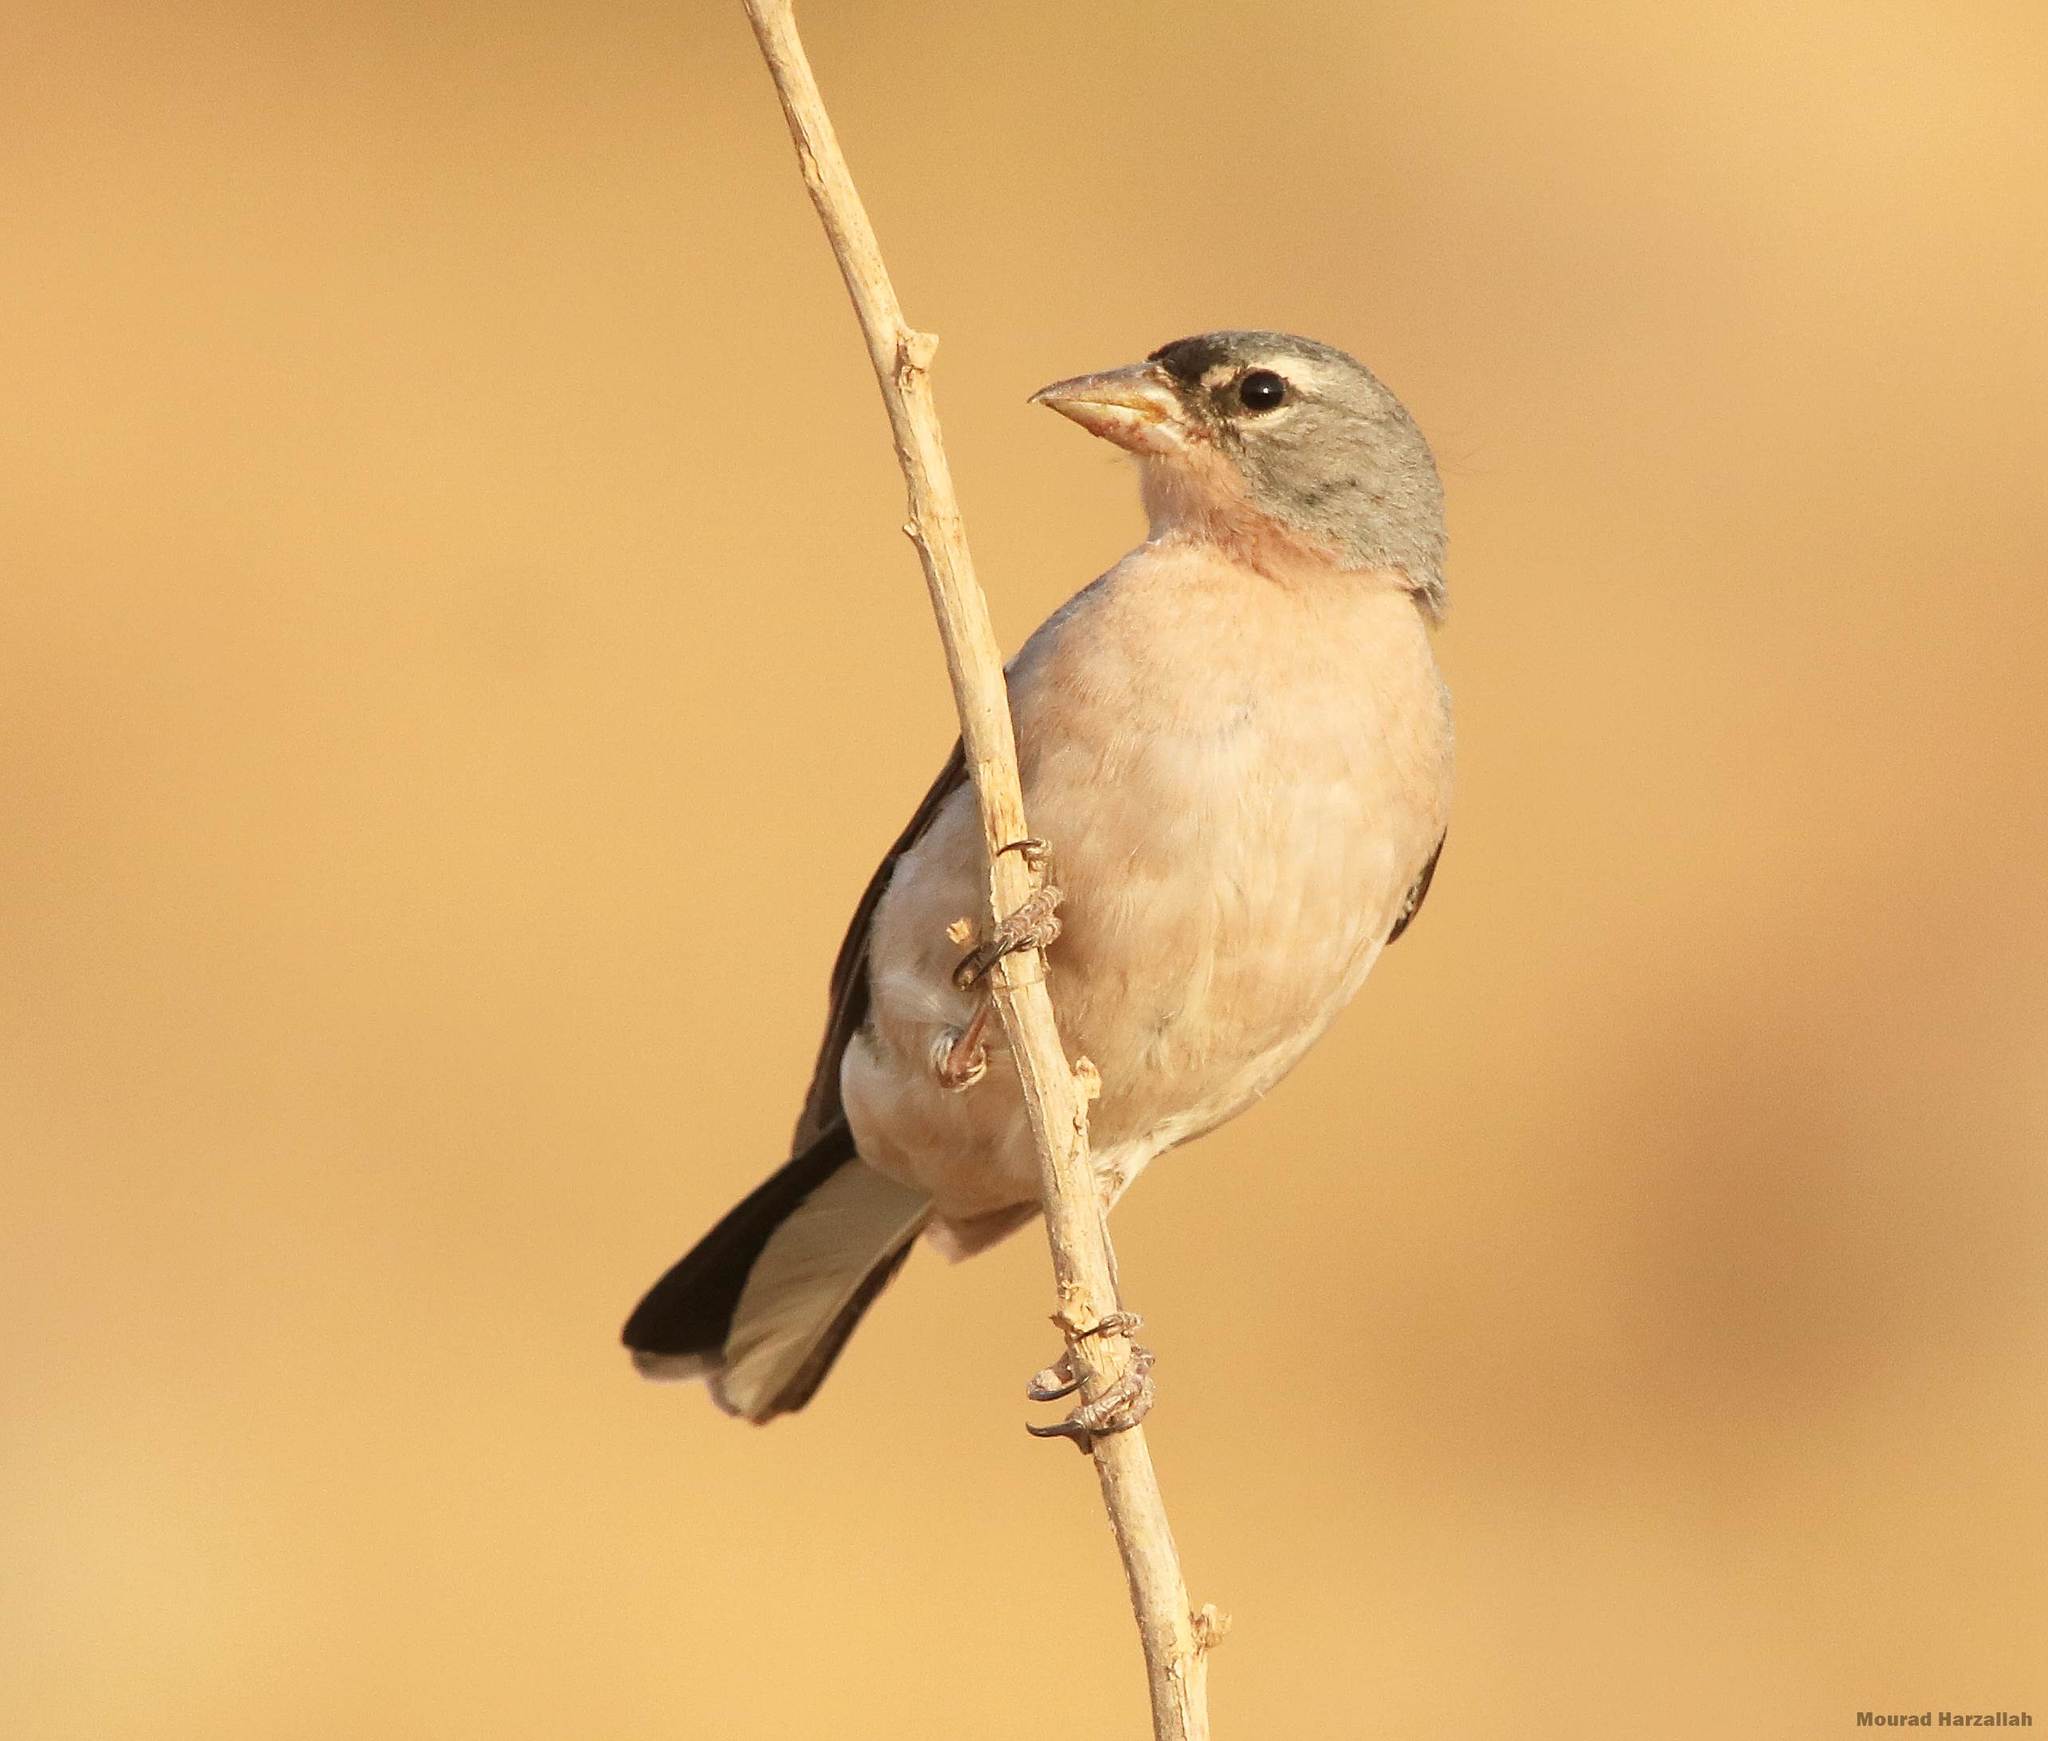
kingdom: Animalia
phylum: Chordata
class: Aves
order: Passeriformes
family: Fringillidae
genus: Fringilla
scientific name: Fringilla spodiogenys
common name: African chaffinch
